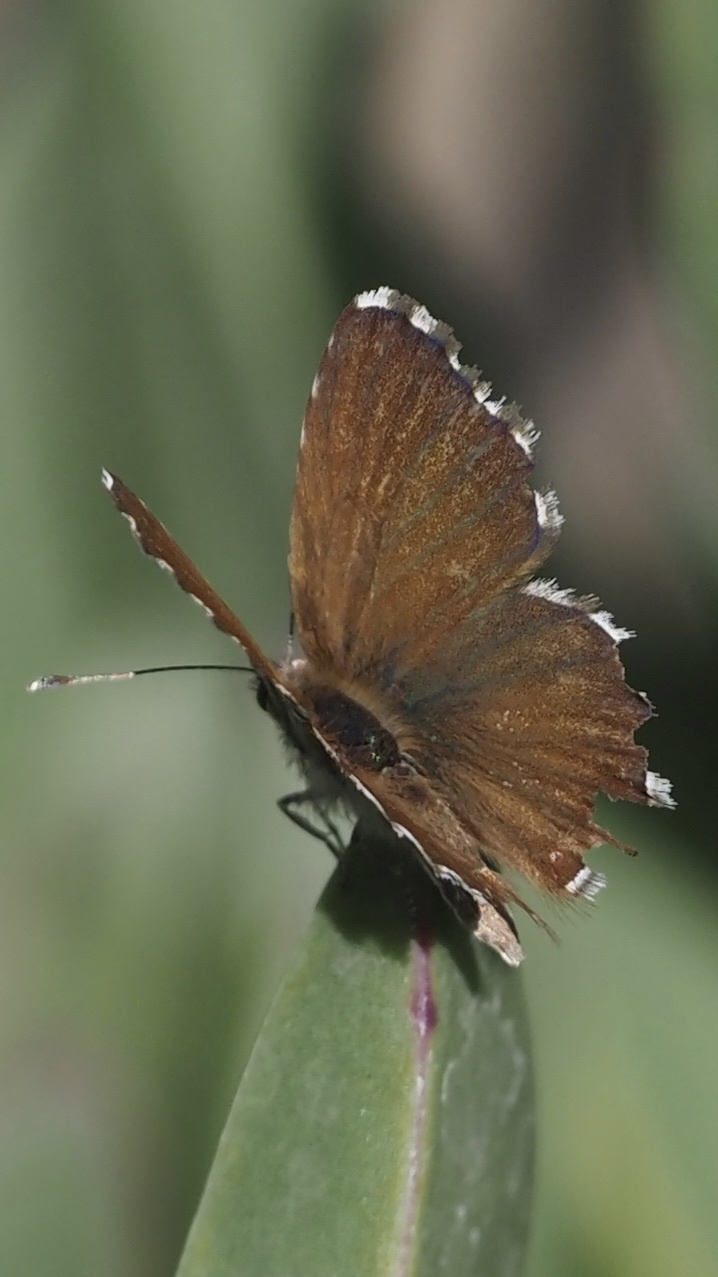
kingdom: Animalia
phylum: Arthropoda
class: Insecta
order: Lepidoptera
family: Lycaenidae
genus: Cacyreus
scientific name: Cacyreus marshalli
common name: Geranium bronze
